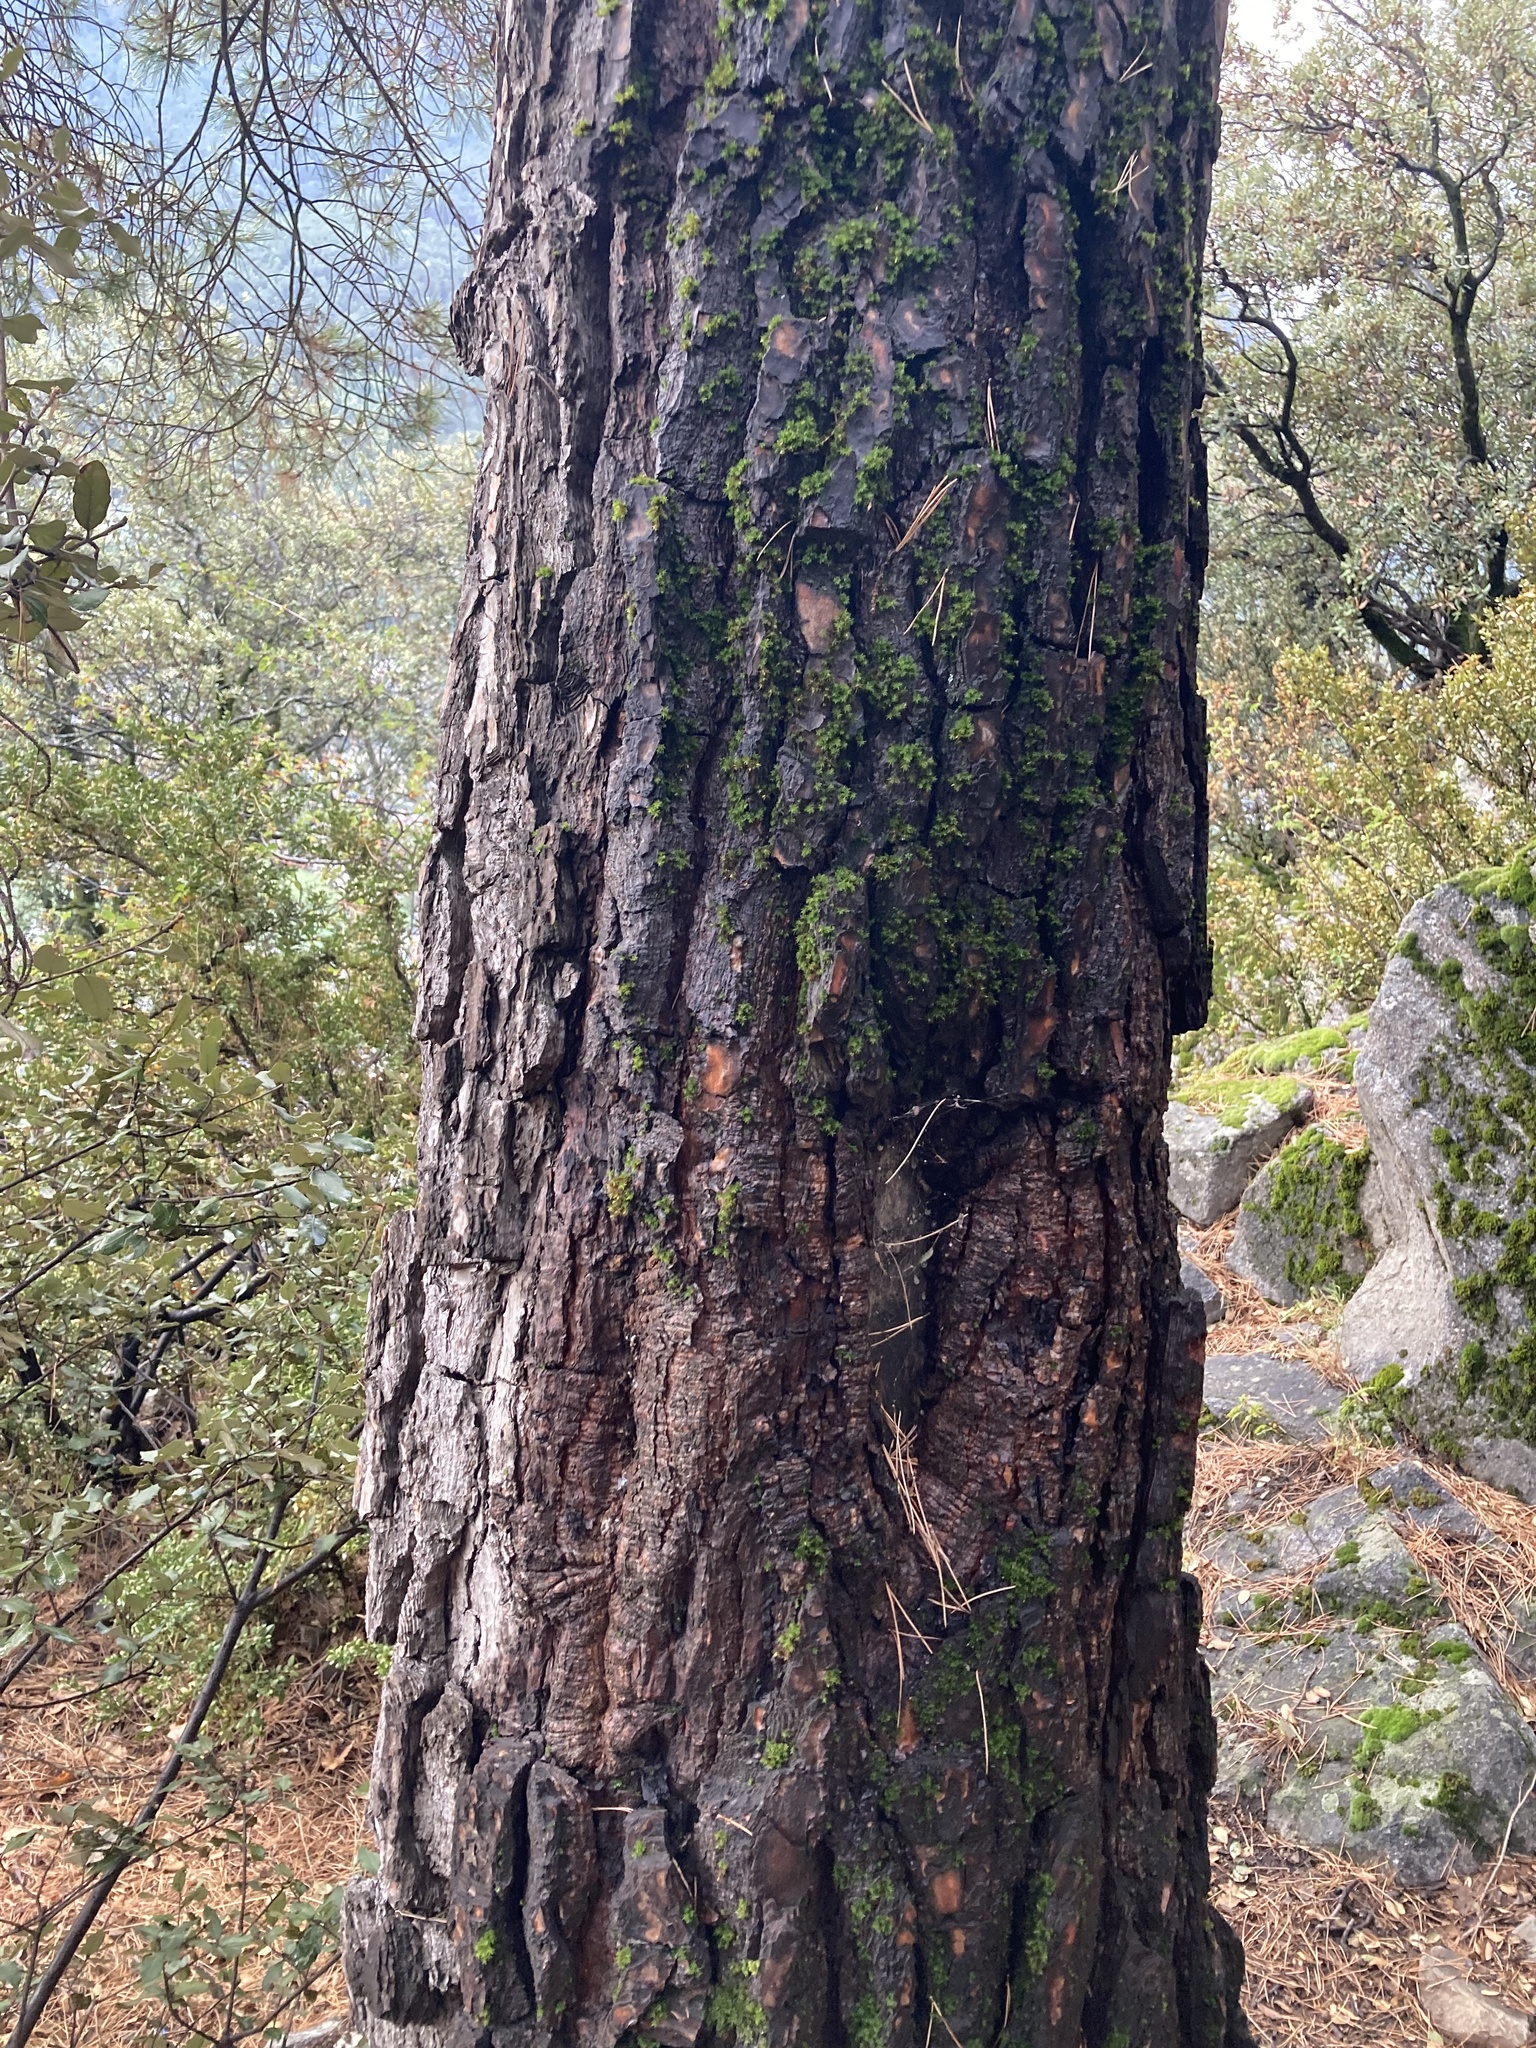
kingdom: Plantae
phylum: Tracheophyta
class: Pinopsida
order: Pinales
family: Pinaceae
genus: Pinus
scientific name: Pinus sylvestris
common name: Scots pine
